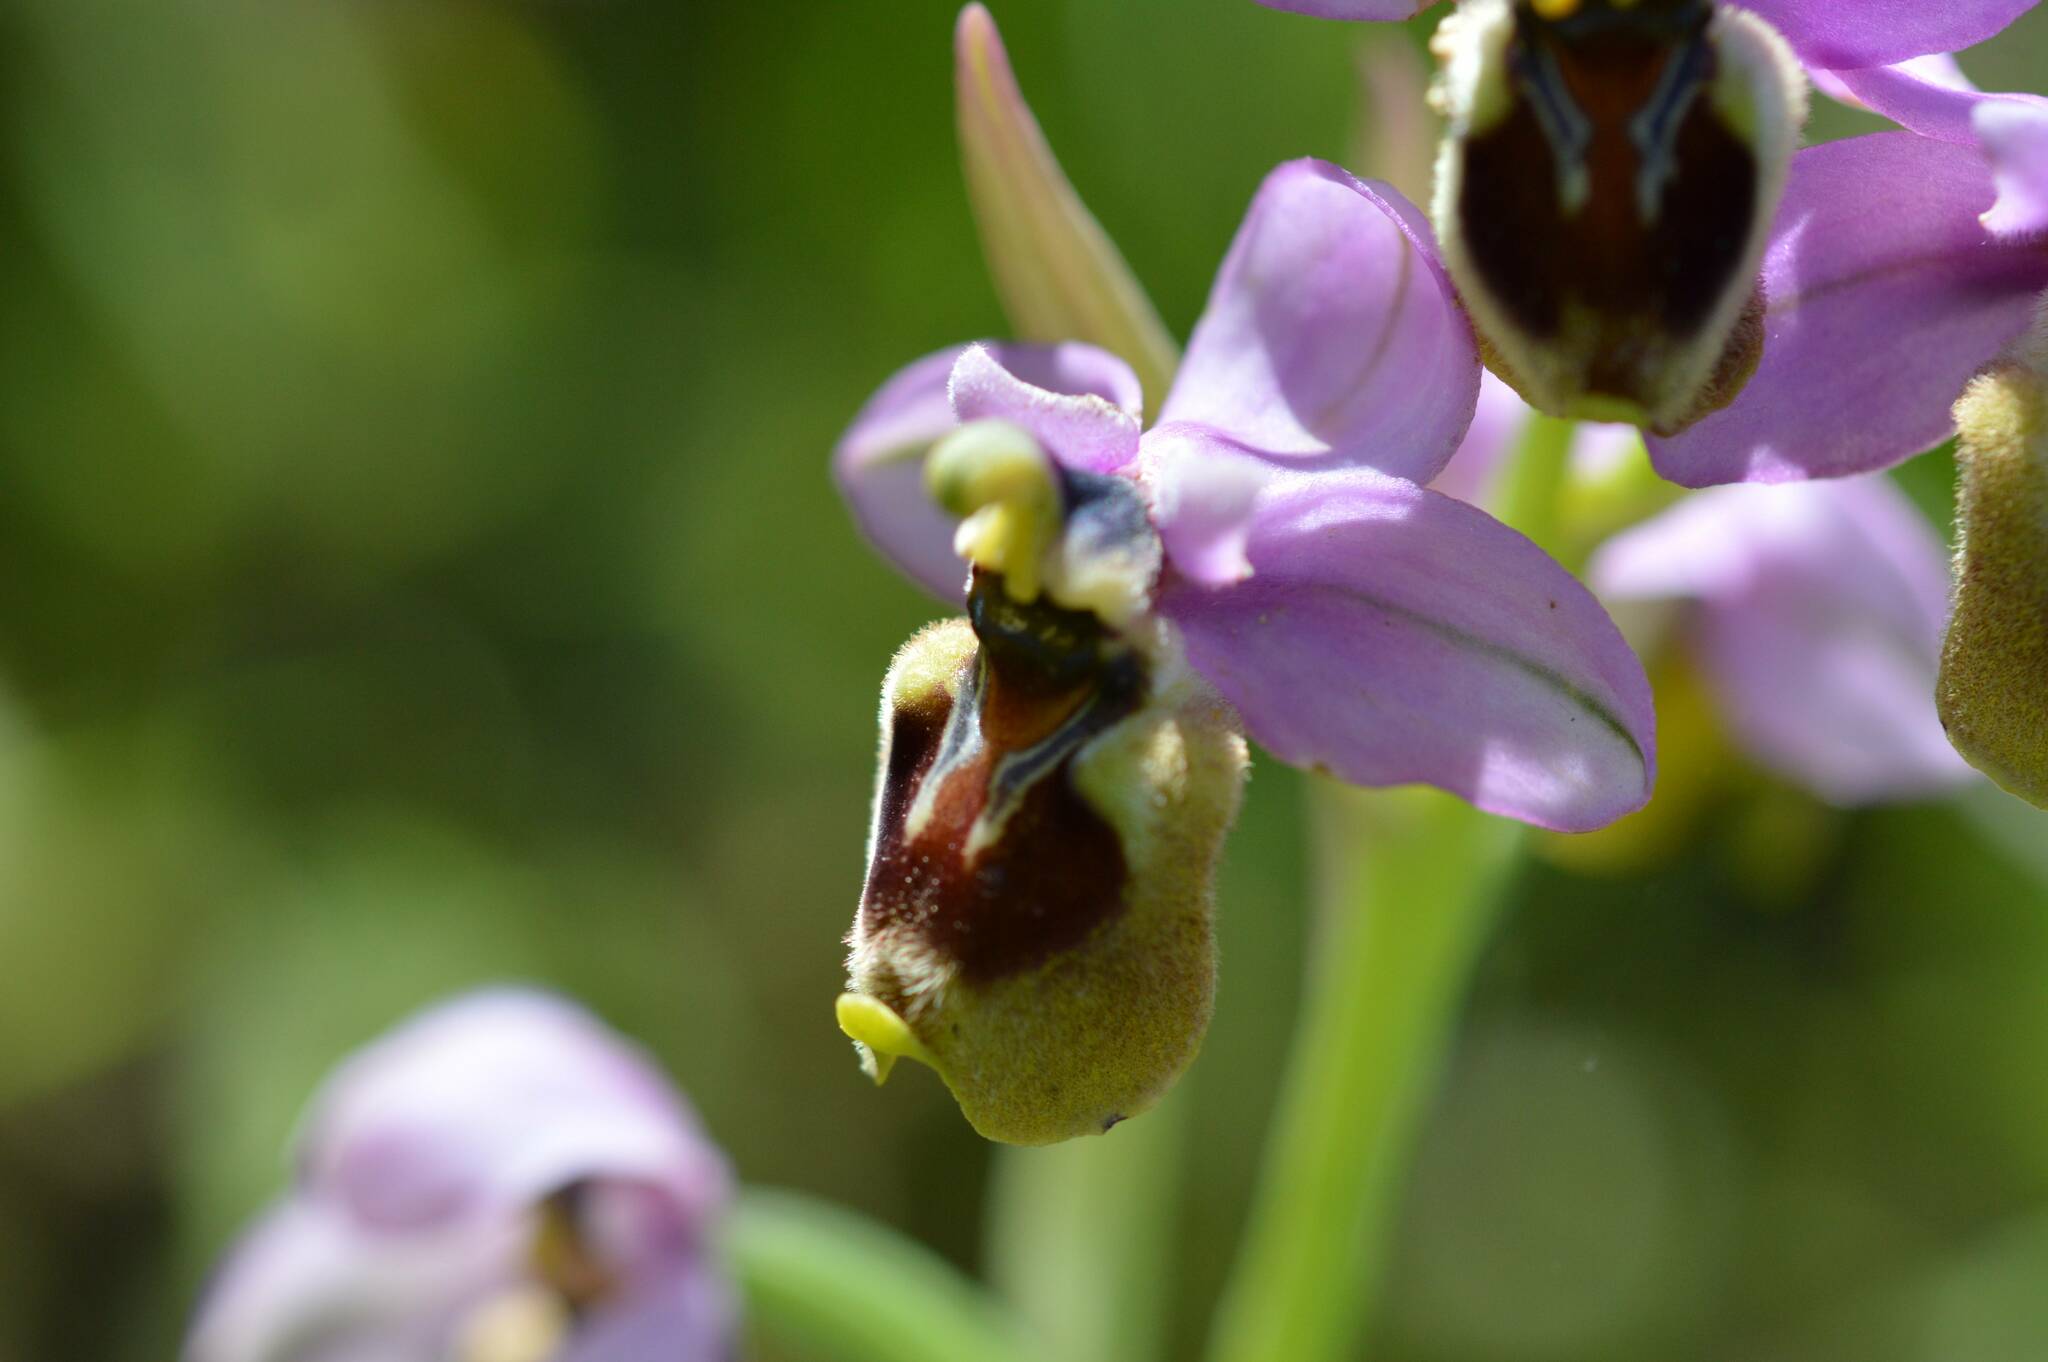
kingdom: Plantae
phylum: Tracheophyta
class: Liliopsida
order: Asparagales
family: Orchidaceae
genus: Ophrys
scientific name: Ophrys tenthredinifera
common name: Sawfly orchid
